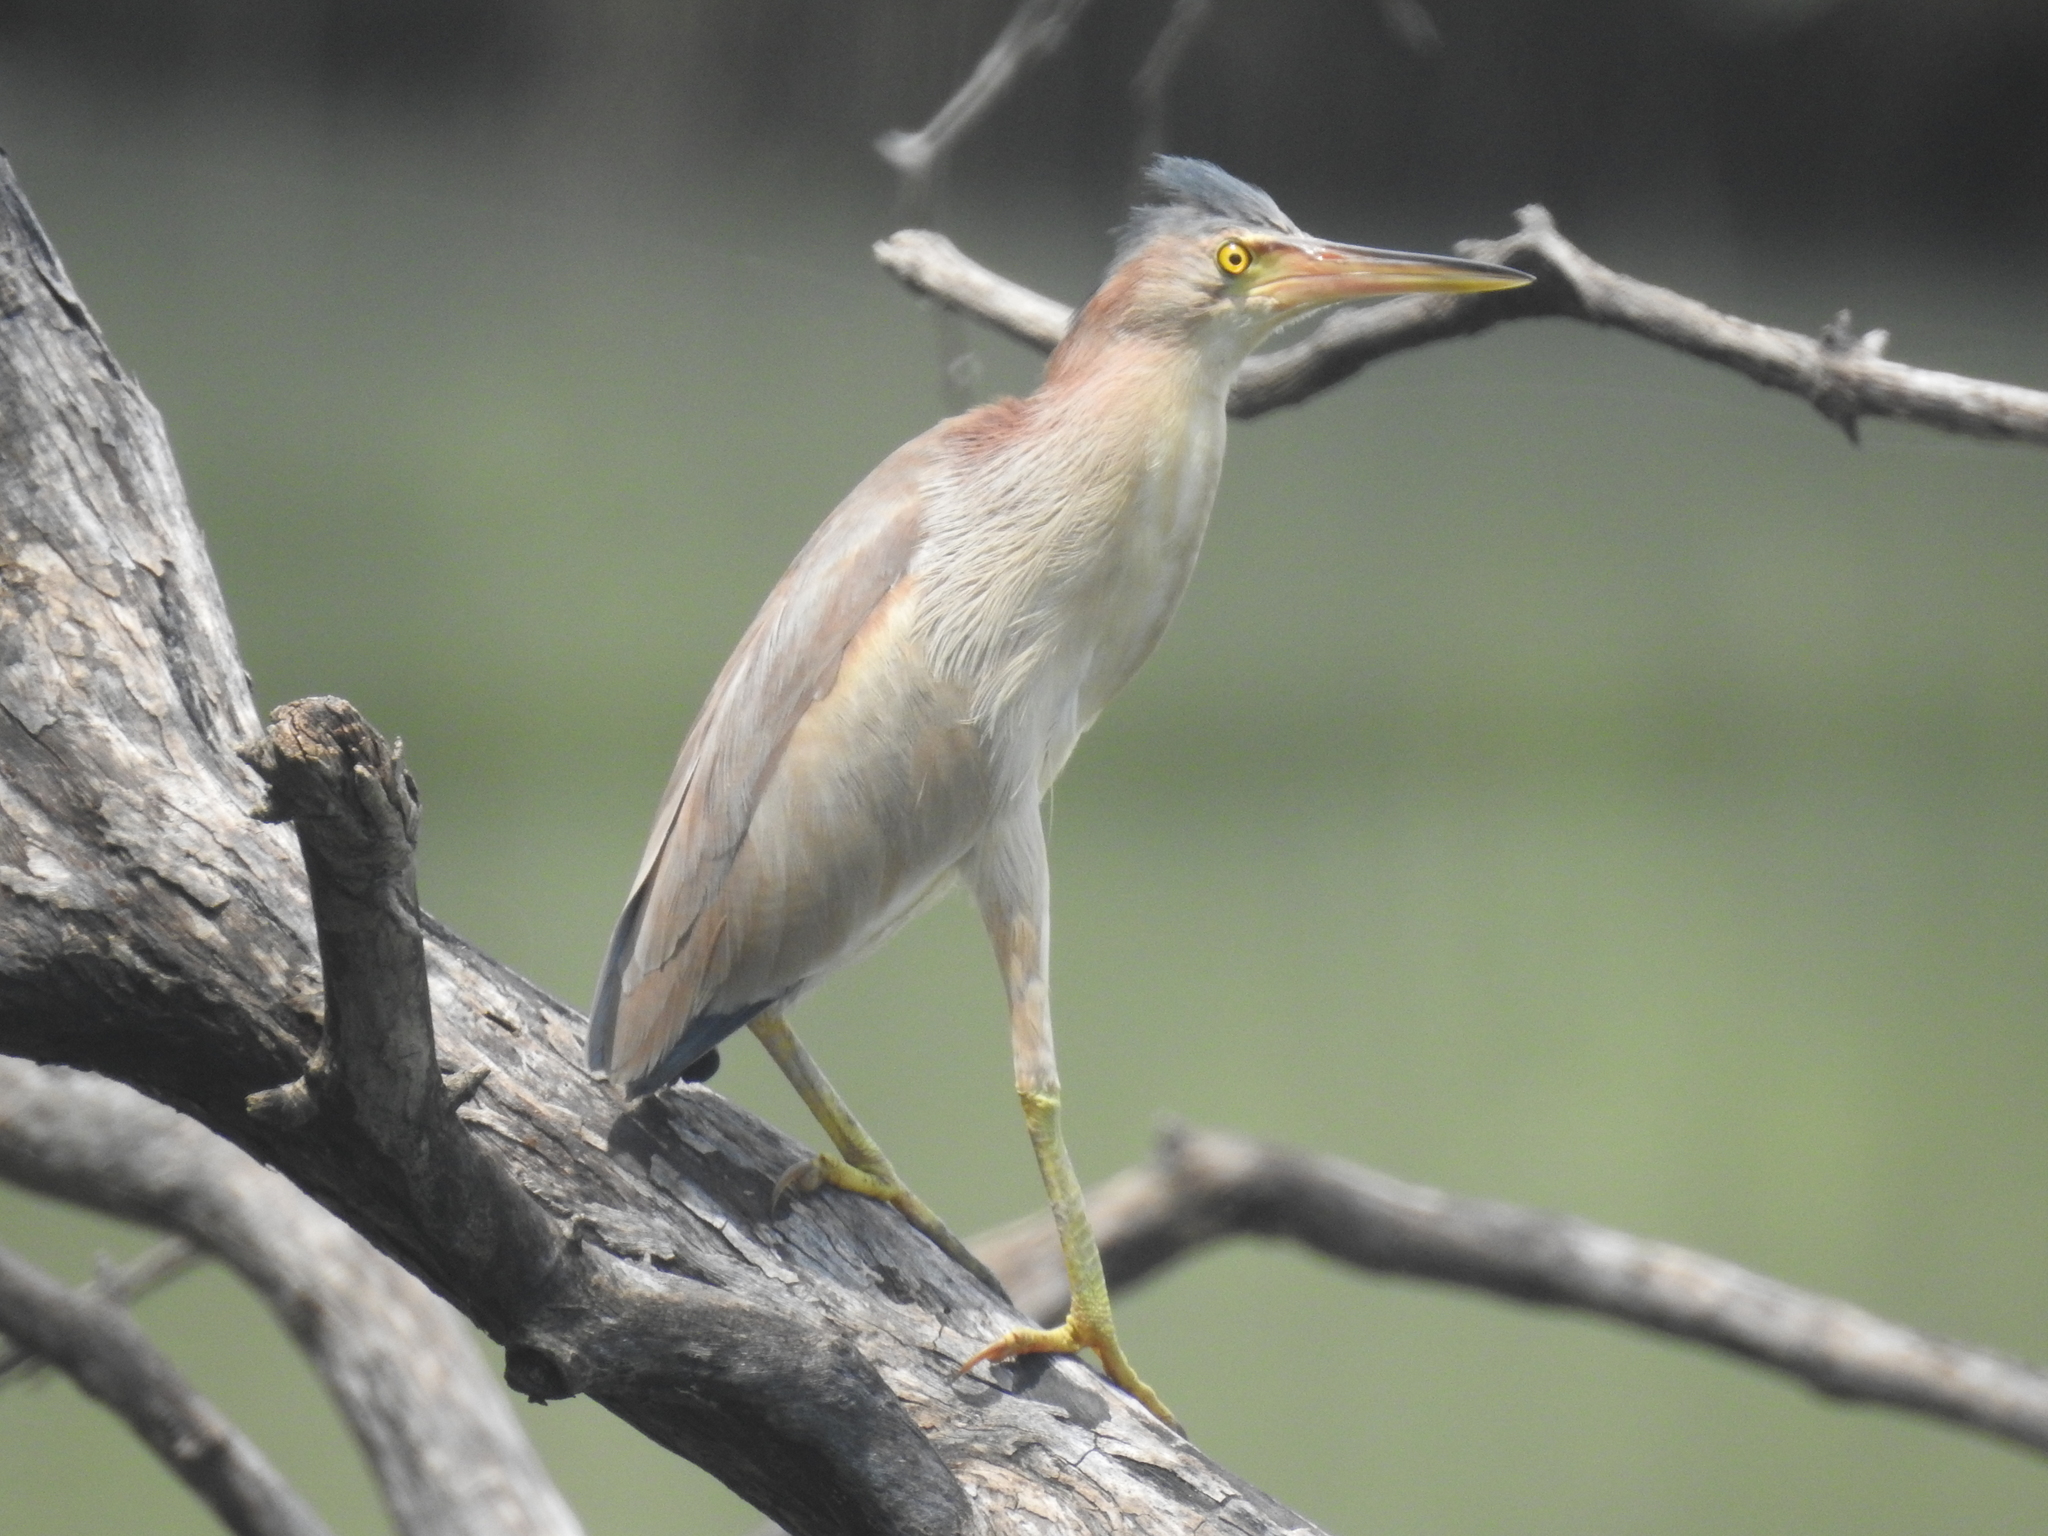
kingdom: Animalia
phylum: Chordata
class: Aves
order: Pelecaniformes
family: Ardeidae
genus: Ixobrychus
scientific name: Ixobrychus sinensis
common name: Yellow bittern
